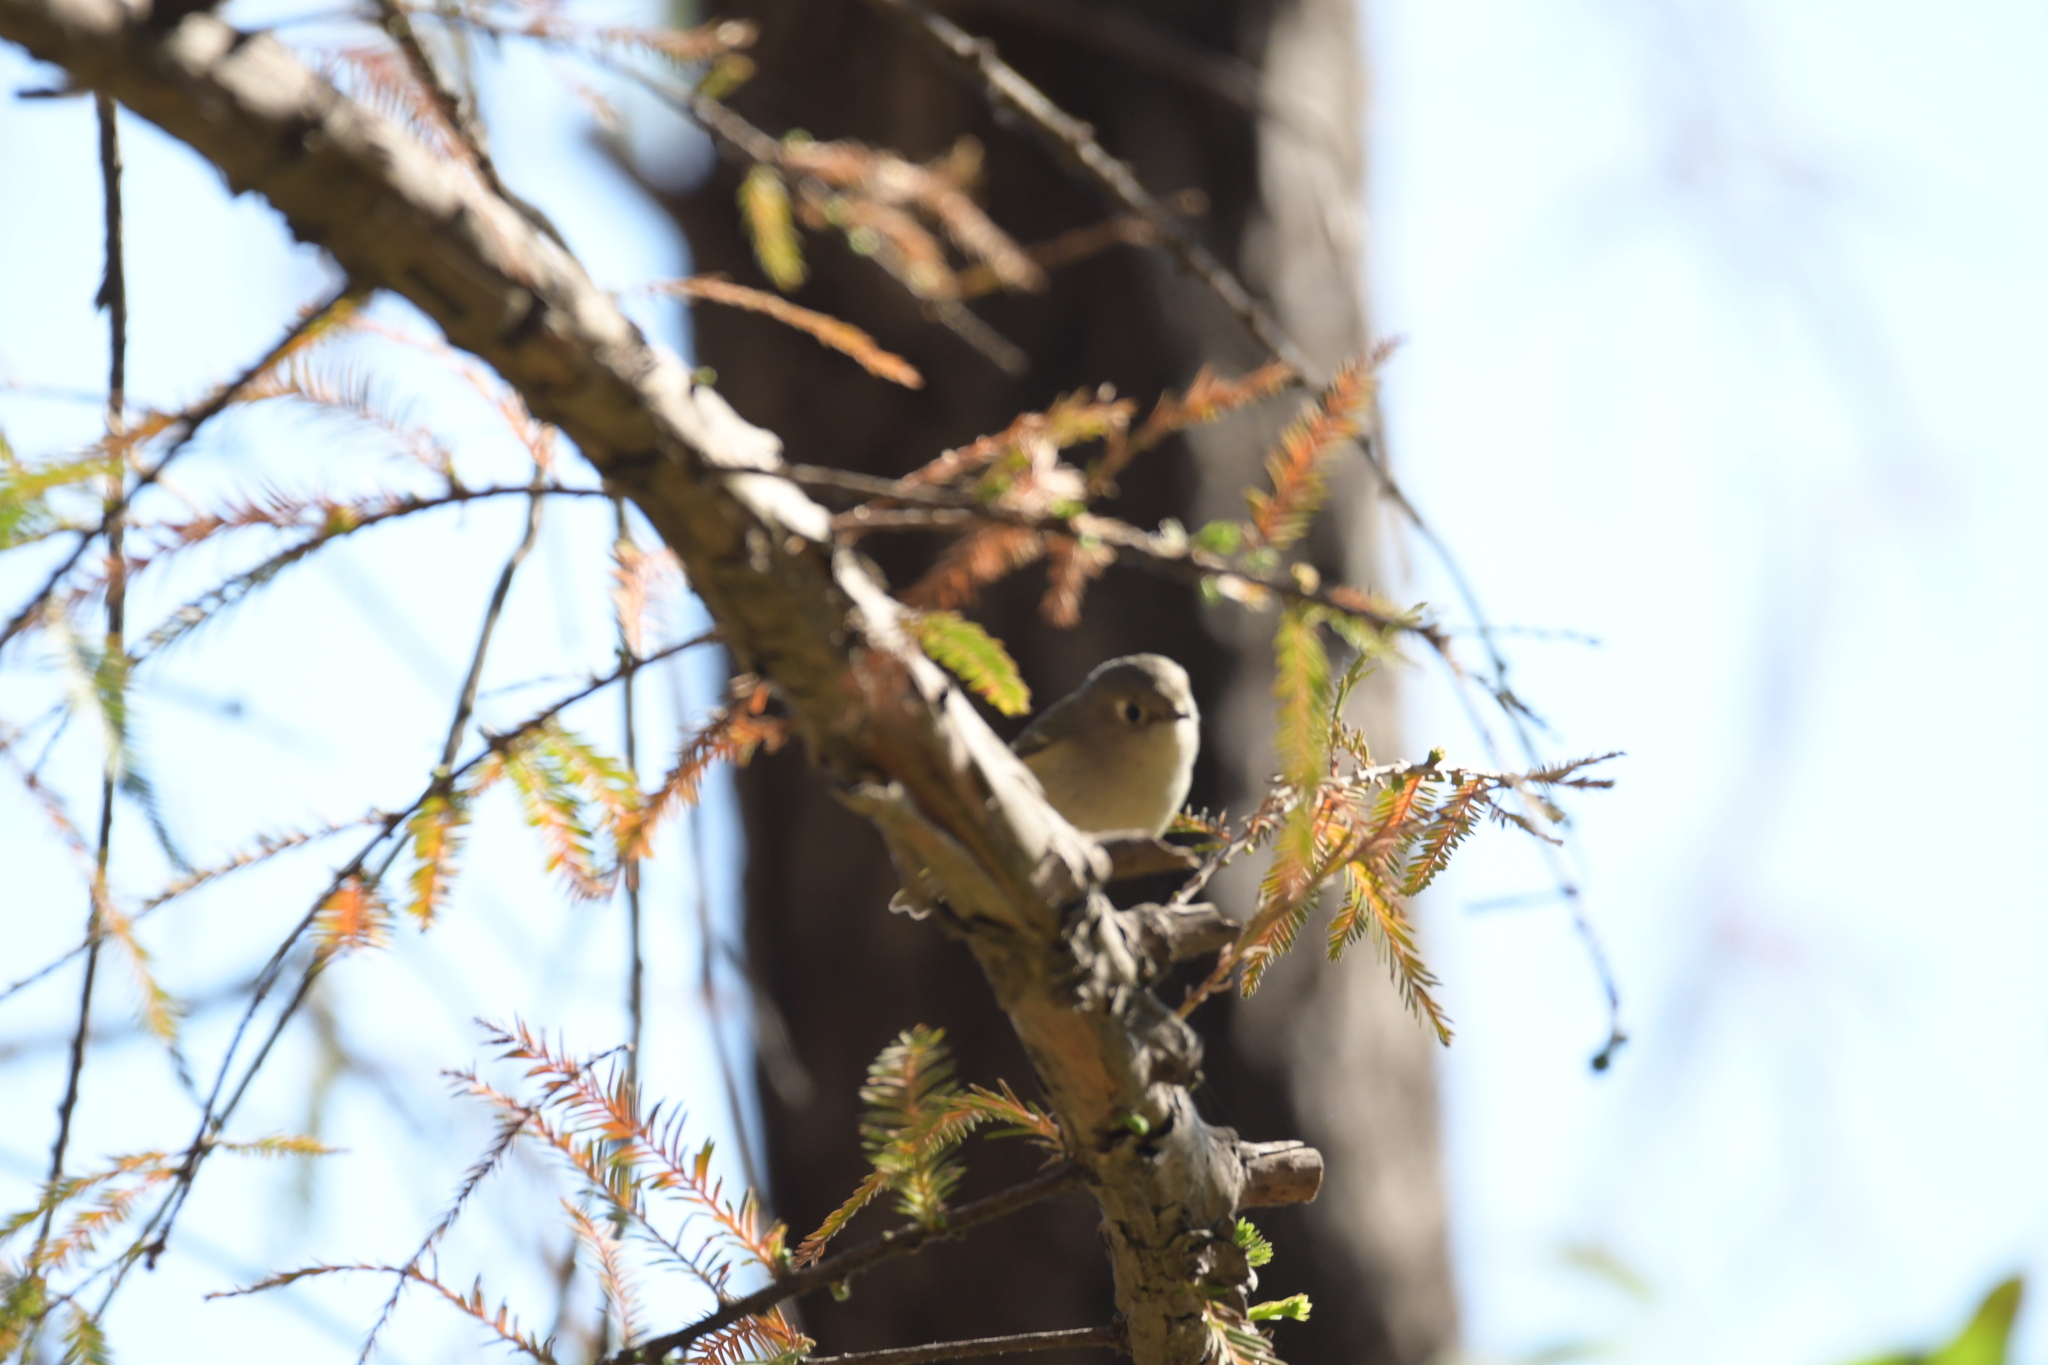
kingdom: Animalia
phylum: Chordata
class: Aves
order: Passeriformes
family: Regulidae
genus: Regulus
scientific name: Regulus calendula
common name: Ruby-crowned kinglet
